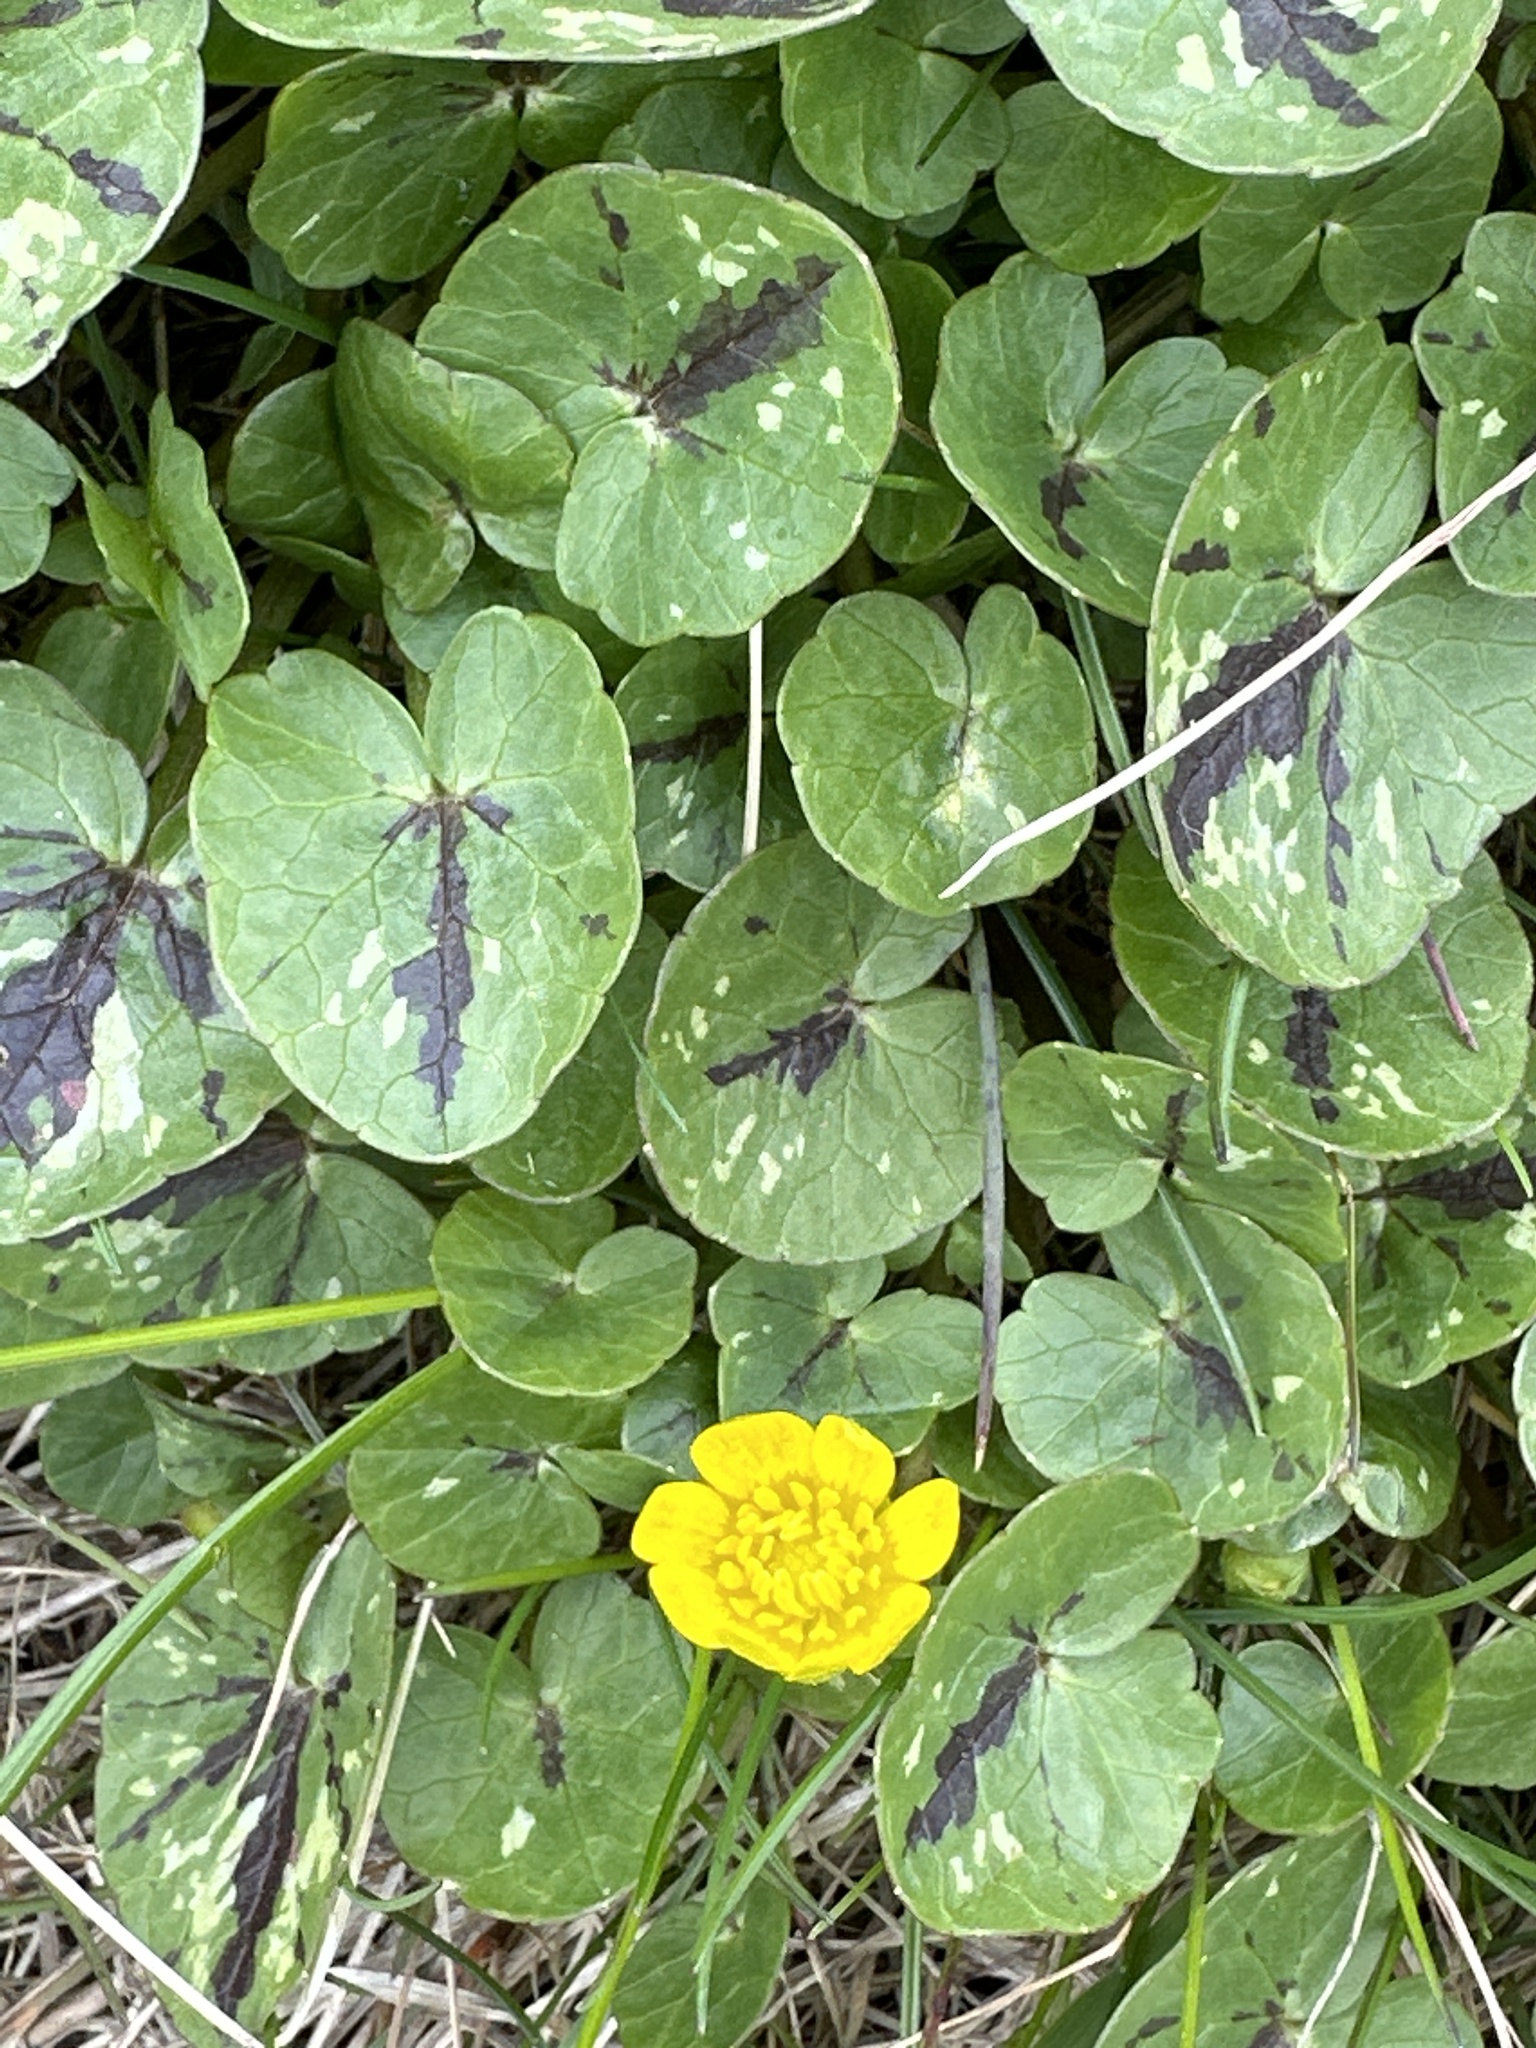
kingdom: Plantae
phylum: Tracheophyta
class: Magnoliopsida
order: Ranunculales
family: Ranunculaceae
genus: Ficaria
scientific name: Ficaria verna
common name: Lesser celandine
